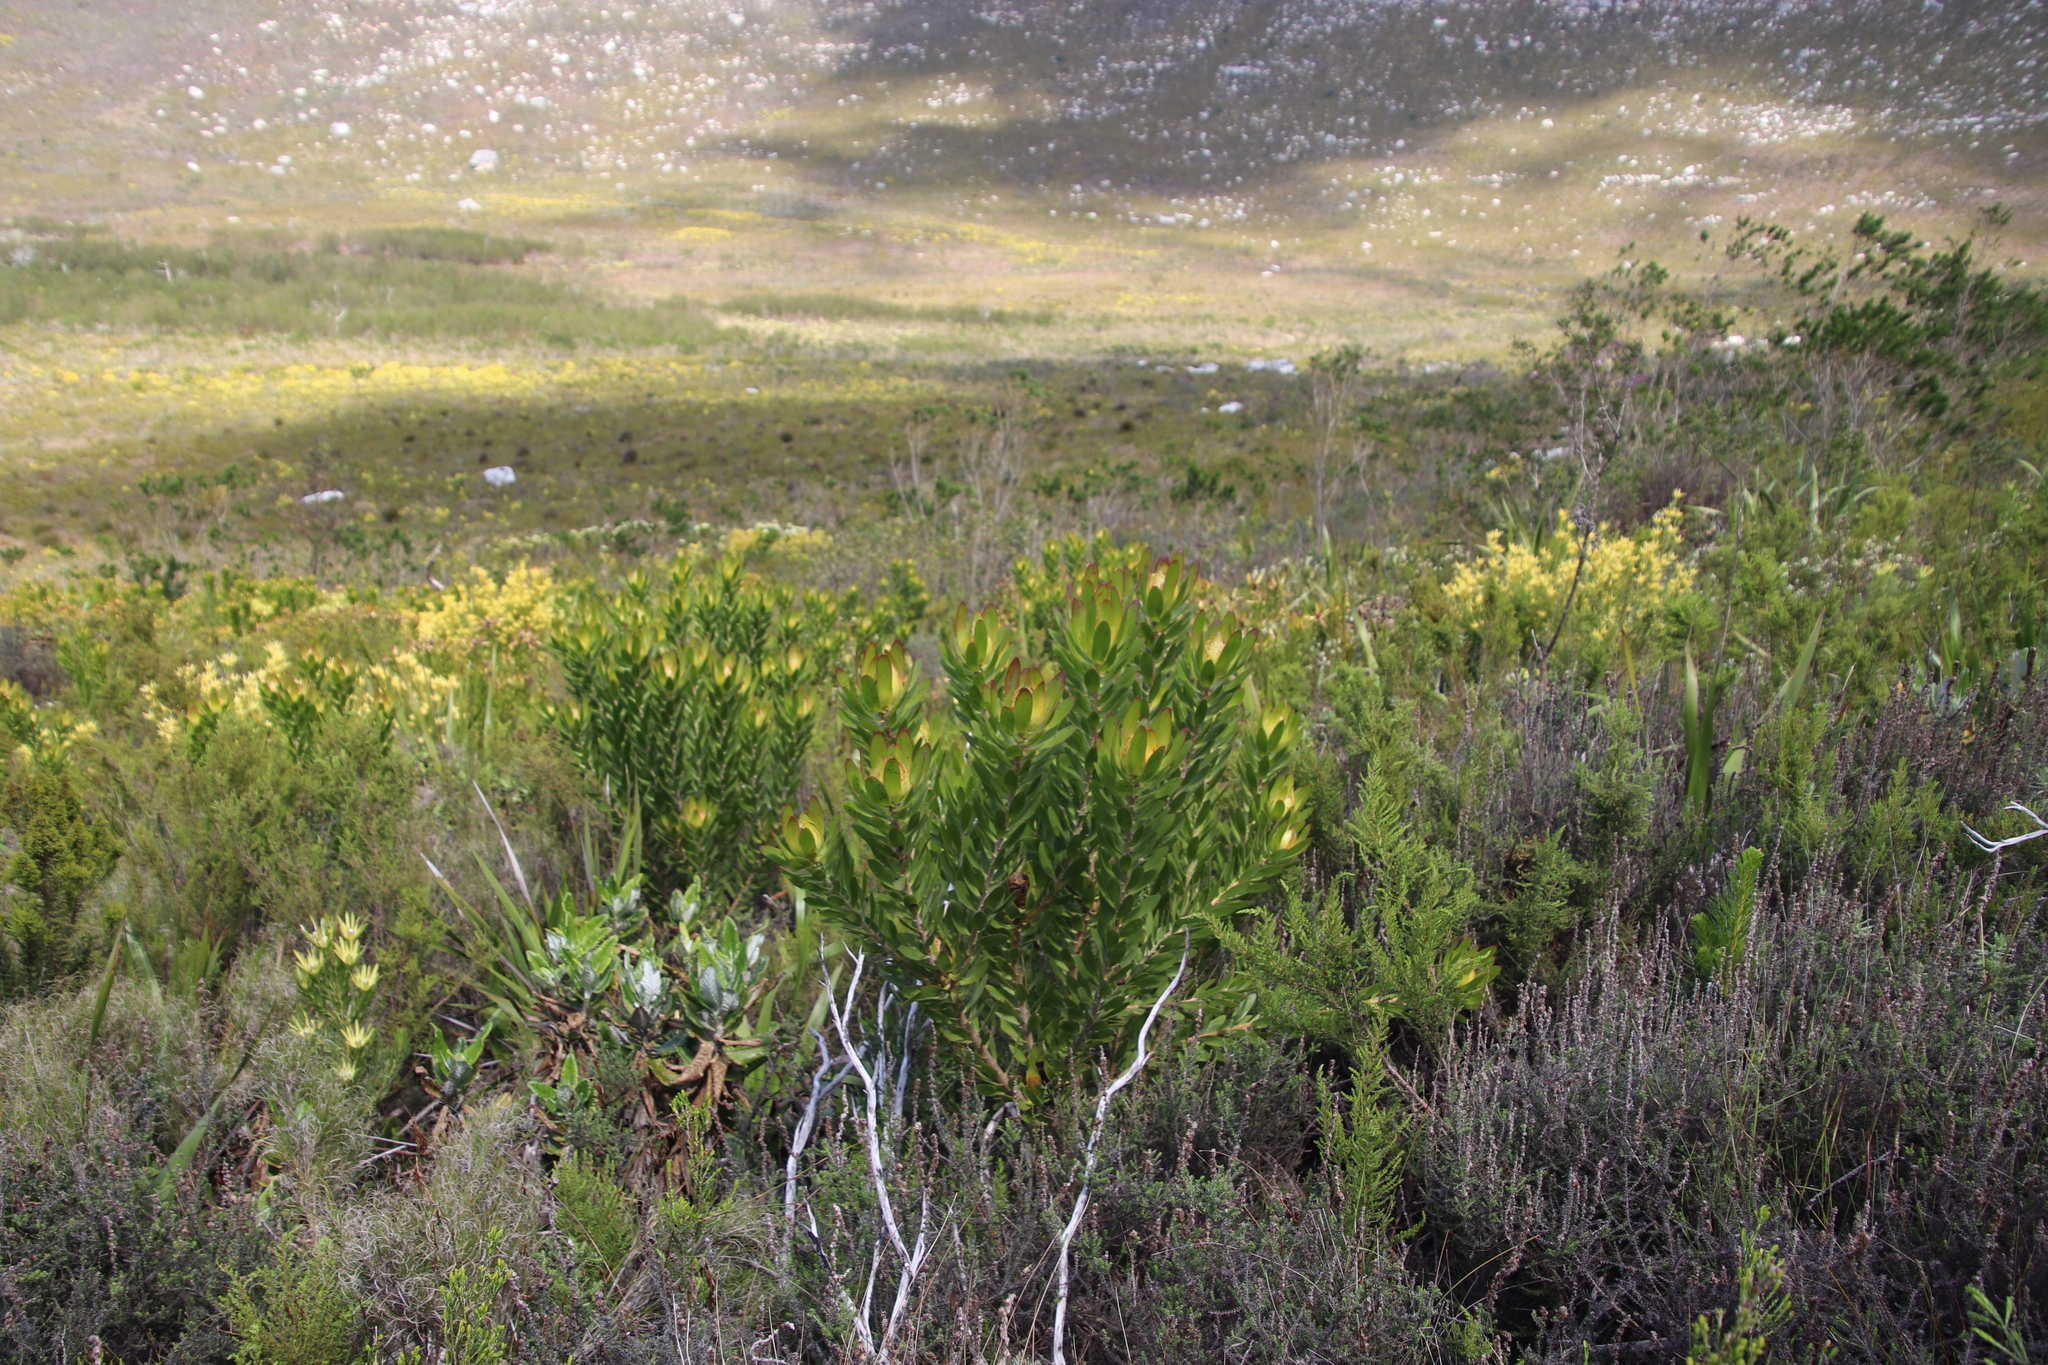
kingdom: Plantae
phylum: Tracheophyta
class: Magnoliopsida
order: Proteales
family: Proteaceae
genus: Leucadendron
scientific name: Leucadendron laureolum
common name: Golden sunshinebush
